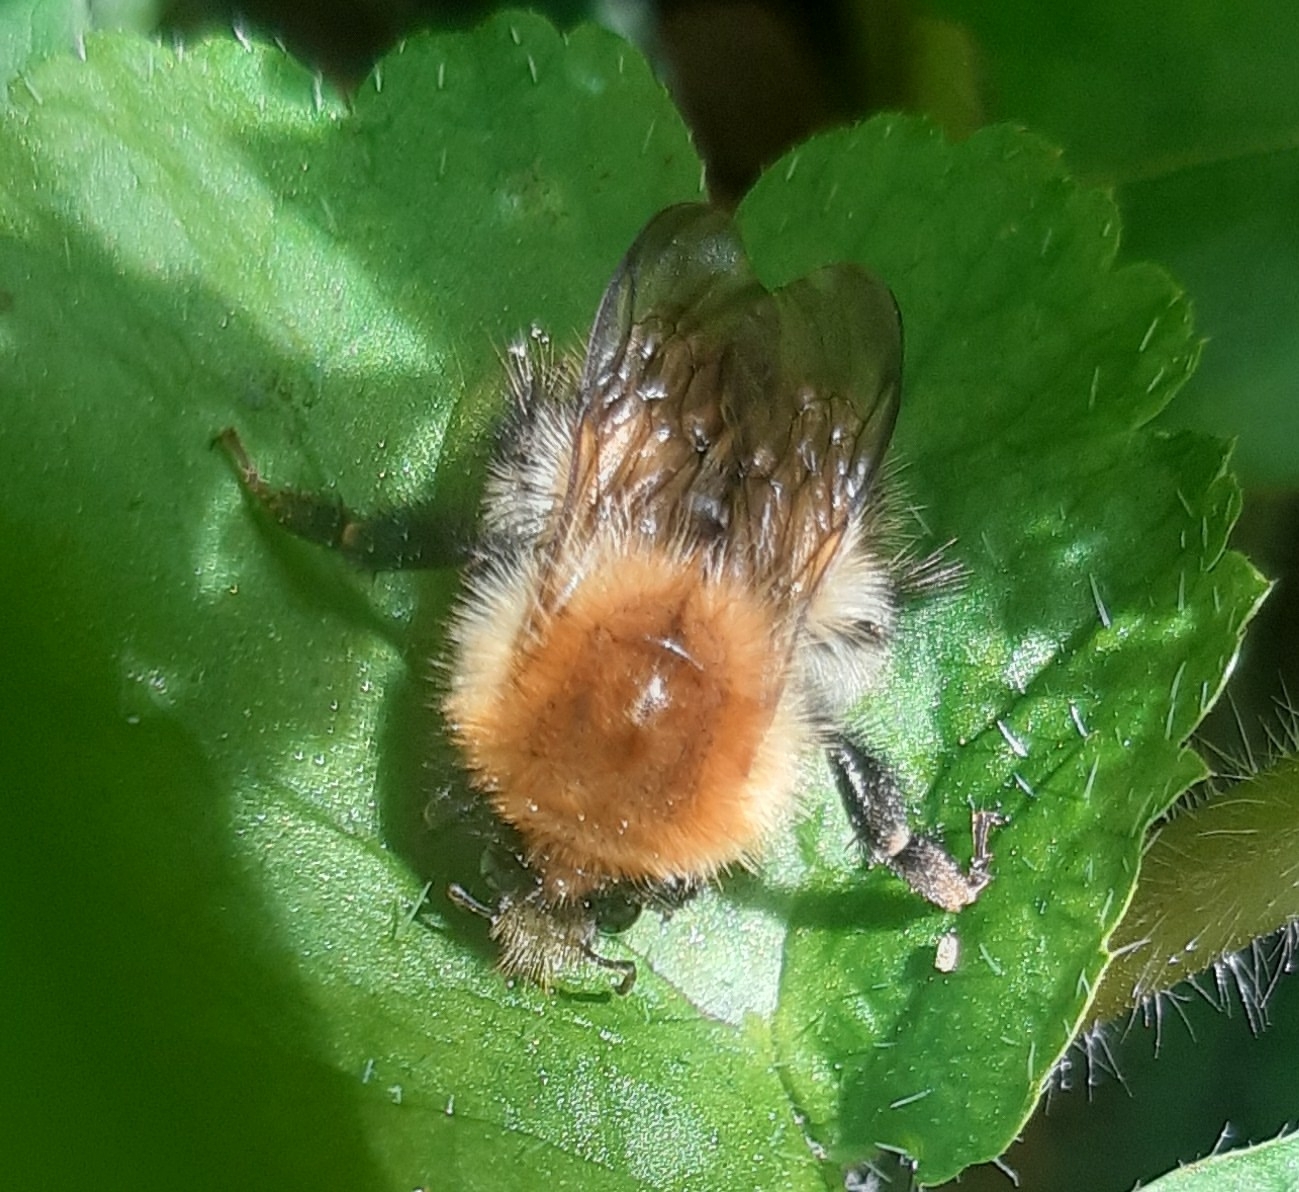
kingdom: Animalia
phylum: Arthropoda
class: Insecta
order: Hymenoptera
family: Apidae
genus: Bombus
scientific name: Bombus pascuorum
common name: Common carder bee
